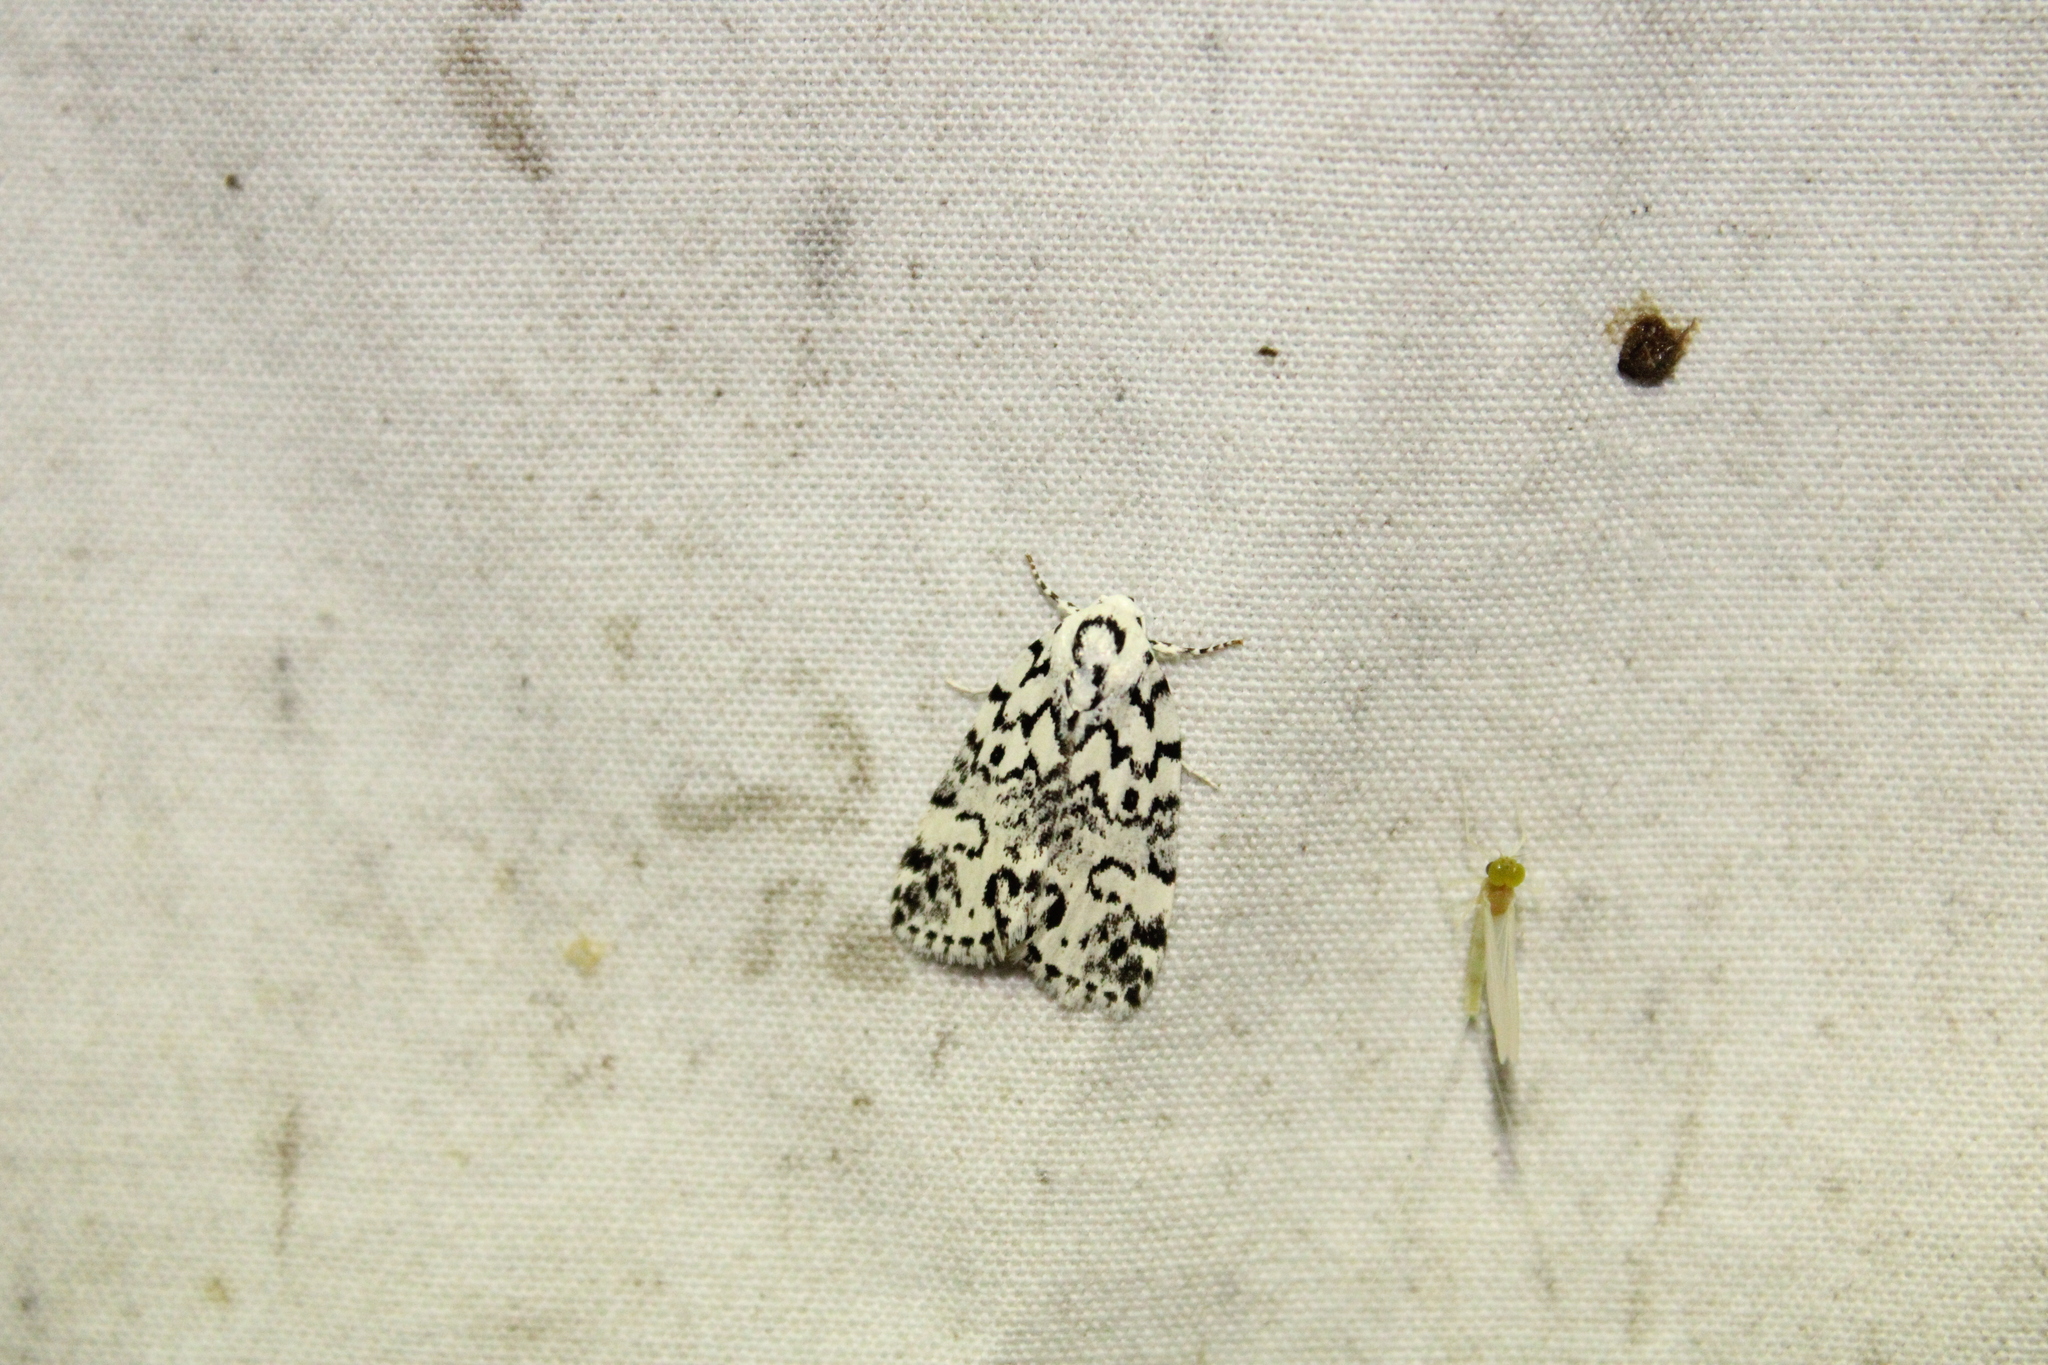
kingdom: Animalia
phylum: Arthropoda
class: Insecta
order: Lepidoptera
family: Noctuidae
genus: Polygrammate
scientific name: Polygrammate hebraeicum
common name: Hebrew moth
